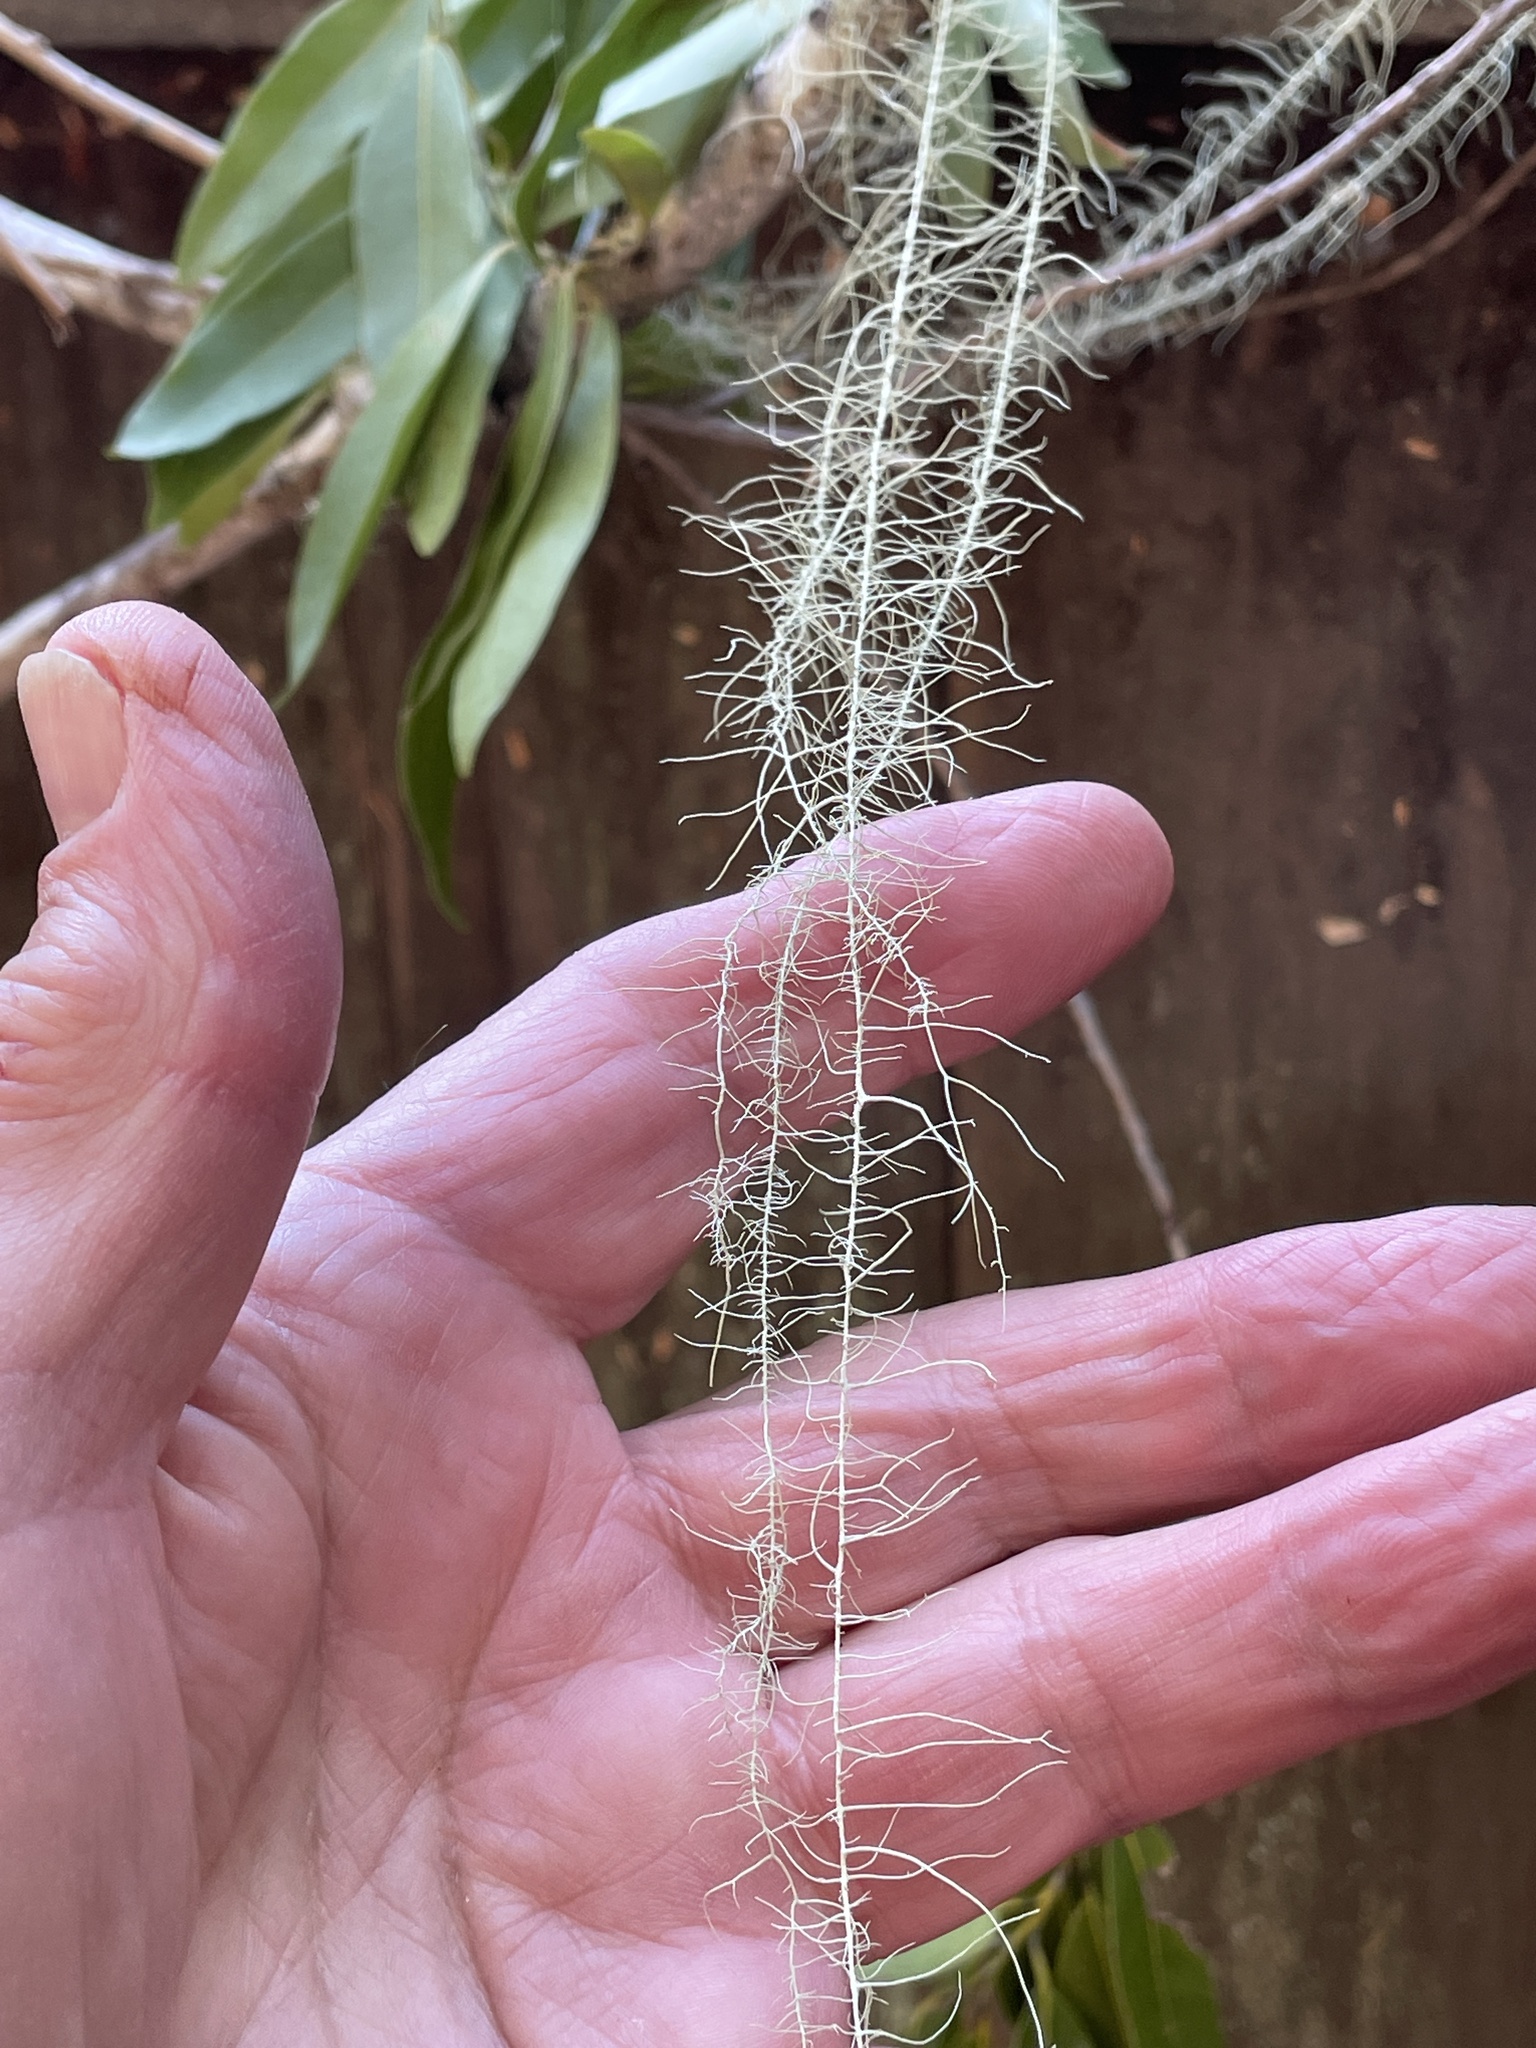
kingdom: Fungi
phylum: Ascomycota
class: Lecanoromycetes
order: Lecanorales
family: Parmeliaceae
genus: Dolichousnea
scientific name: Dolichousnea longissima
